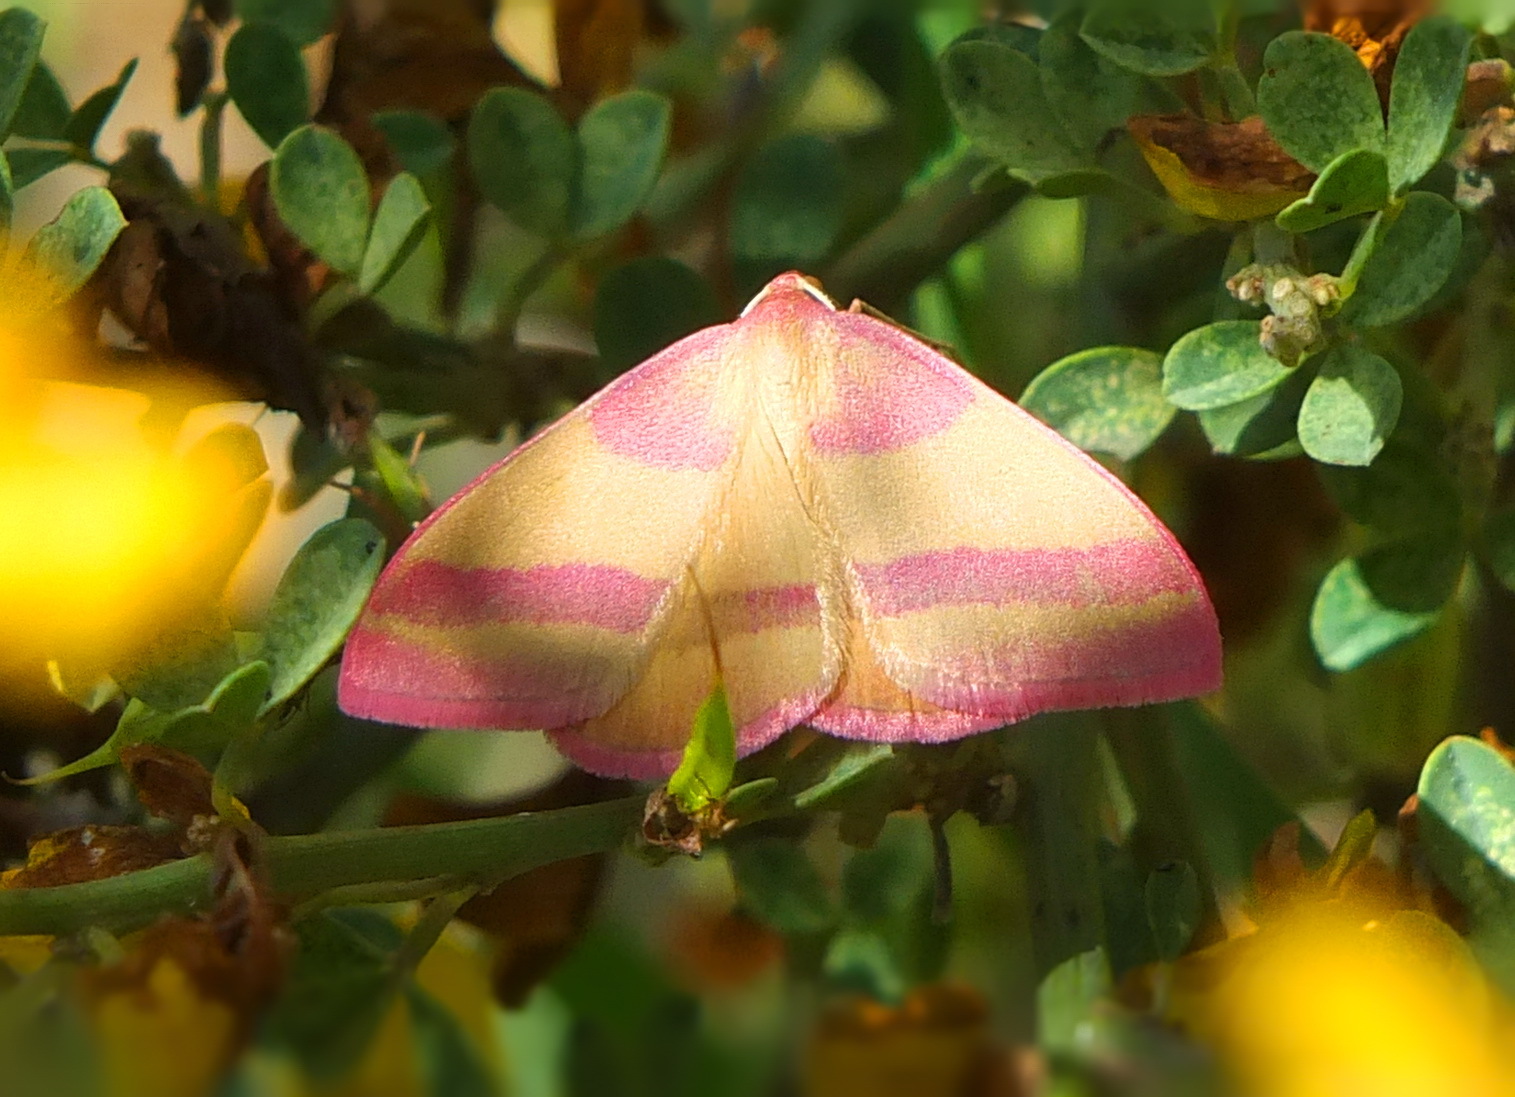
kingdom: Animalia
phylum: Arthropoda
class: Insecta
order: Lepidoptera
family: Geometridae
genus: Rhodostrophia
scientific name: Rhodostrophia pudorata
